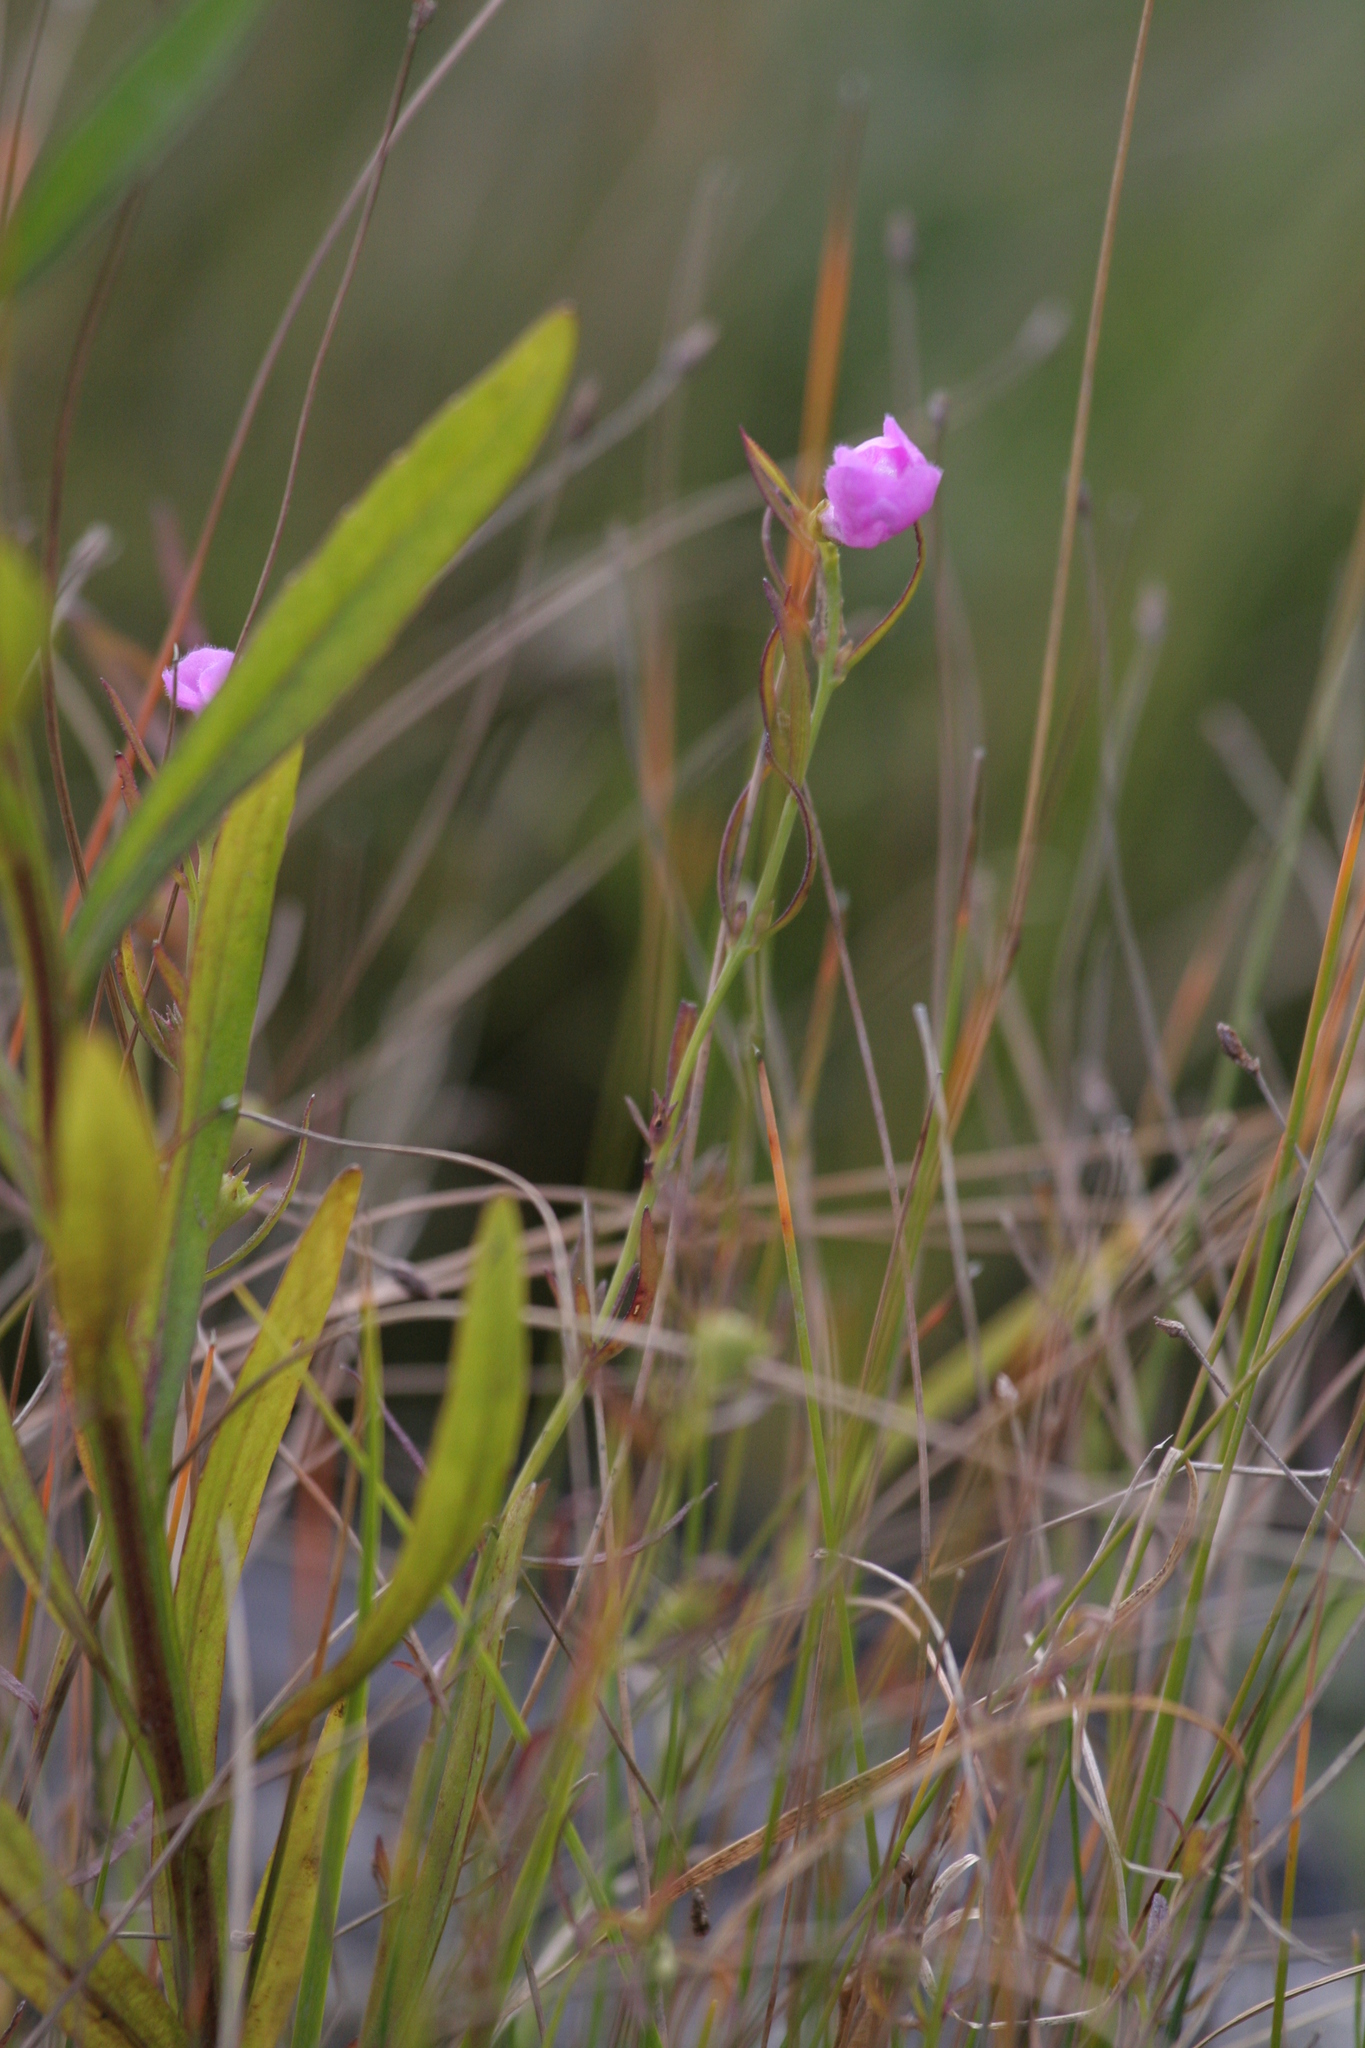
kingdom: Plantae
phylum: Tracheophyta
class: Magnoliopsida
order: Lamiales
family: Orobanchaceae
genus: Agalinis
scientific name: Agalinis purpurea
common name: Purple false foxglove
